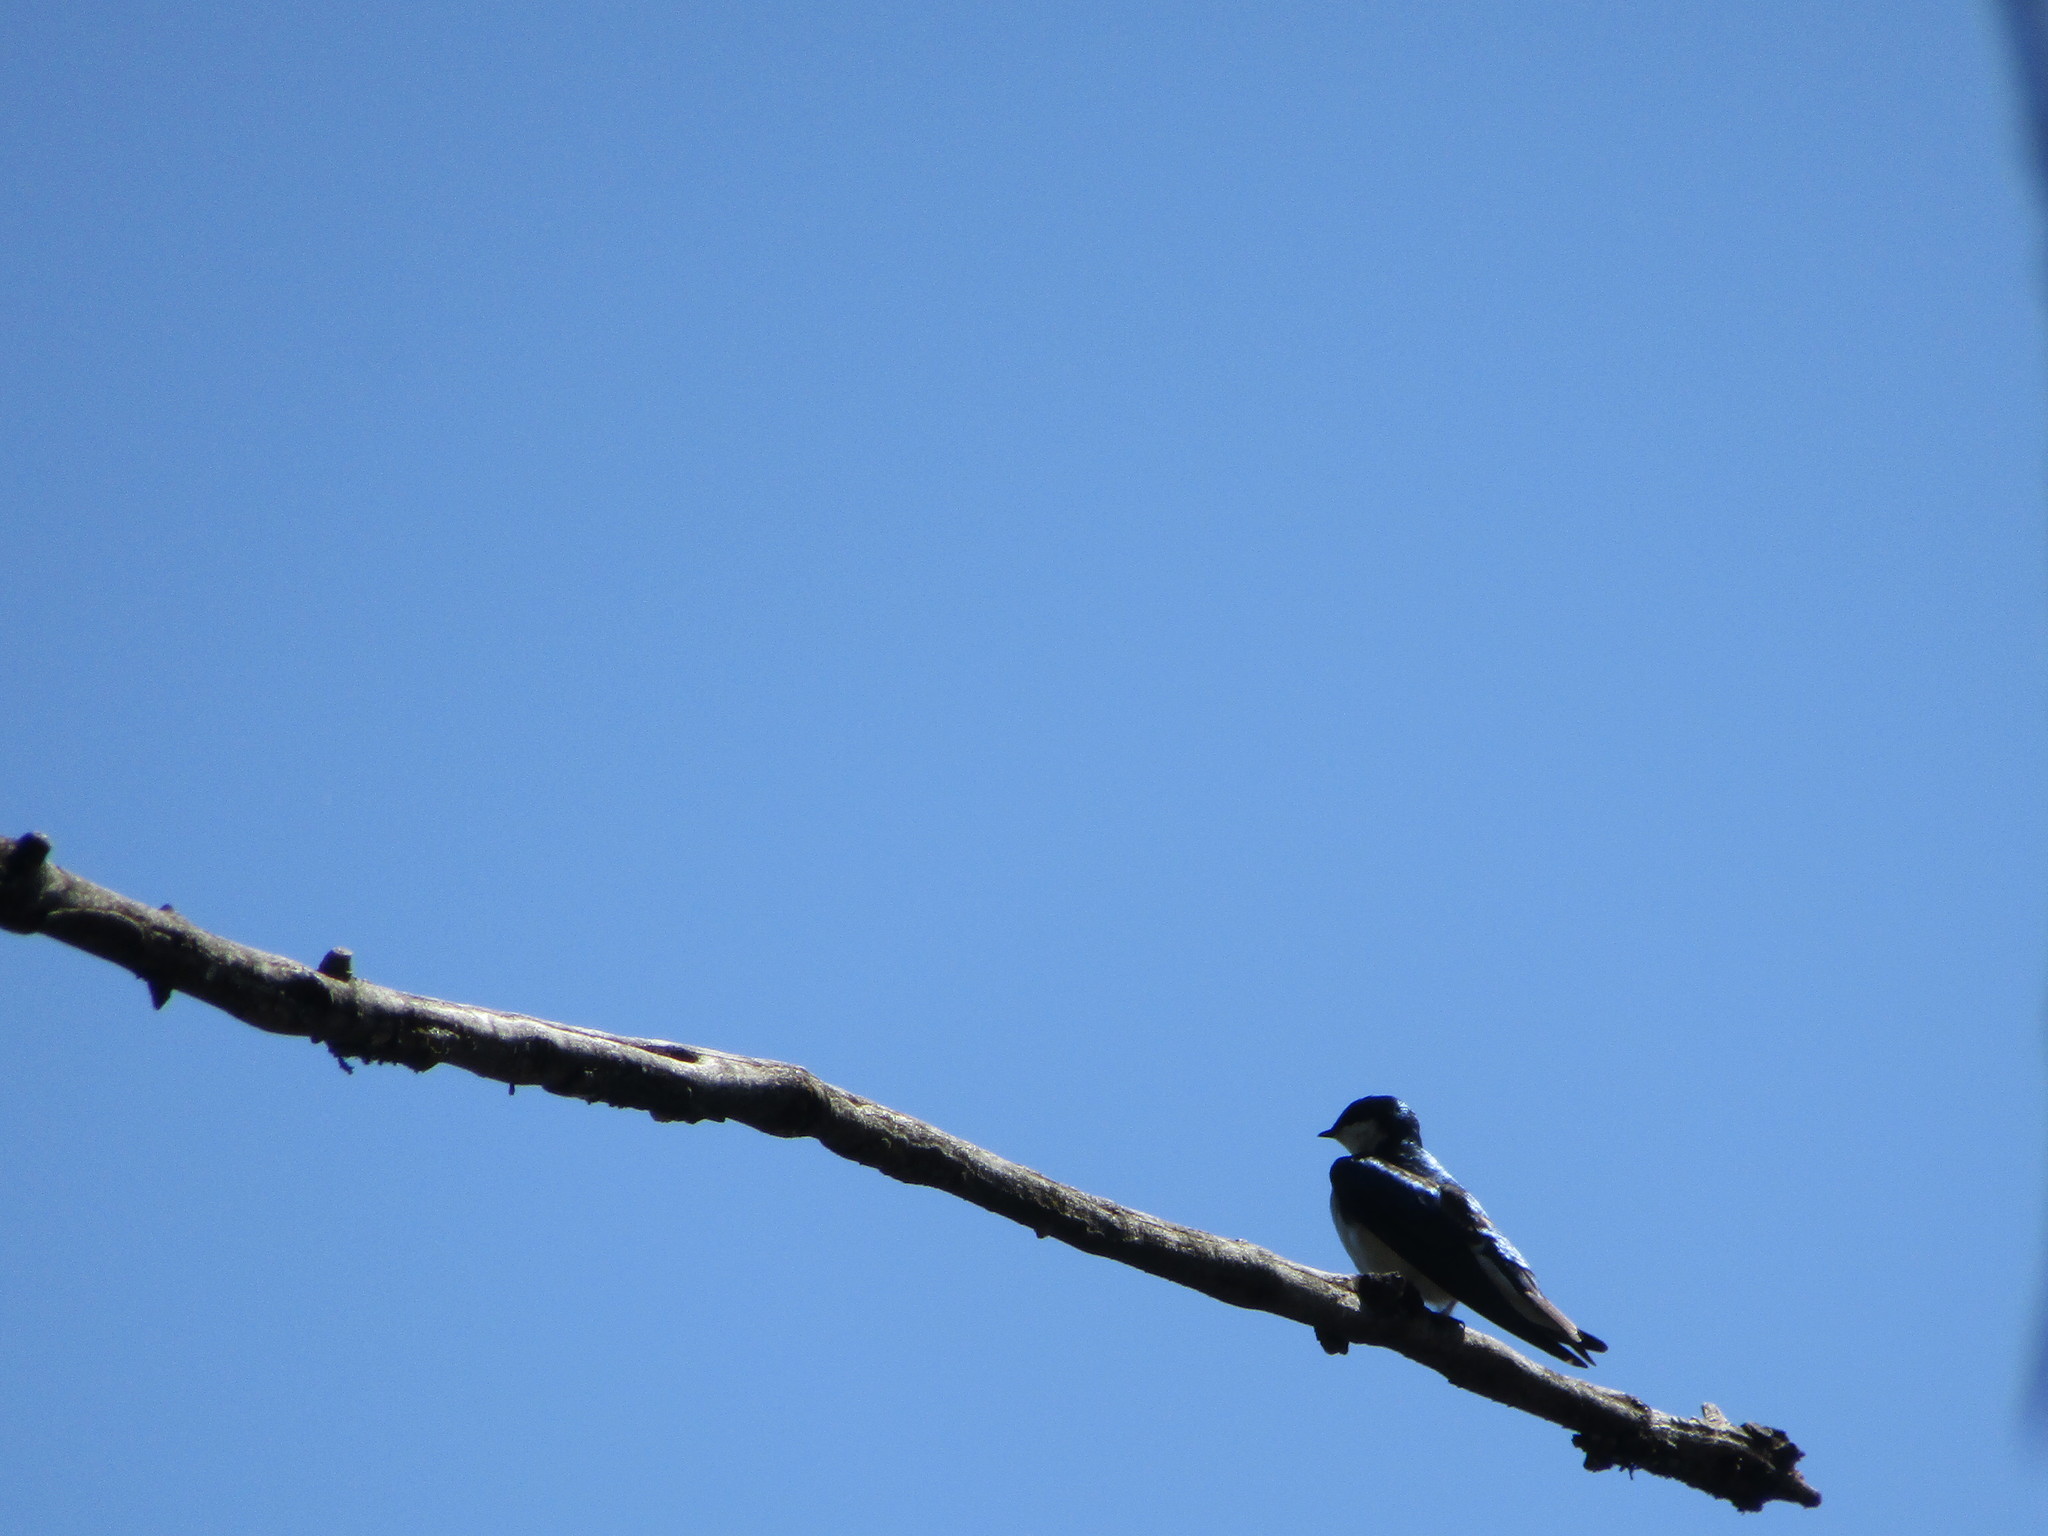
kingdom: Animalia
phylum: Chordata
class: Aves
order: Passeriformes
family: Hirundinidae
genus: Tachycineta
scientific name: Tachycineta bicolor
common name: Tree swallow
